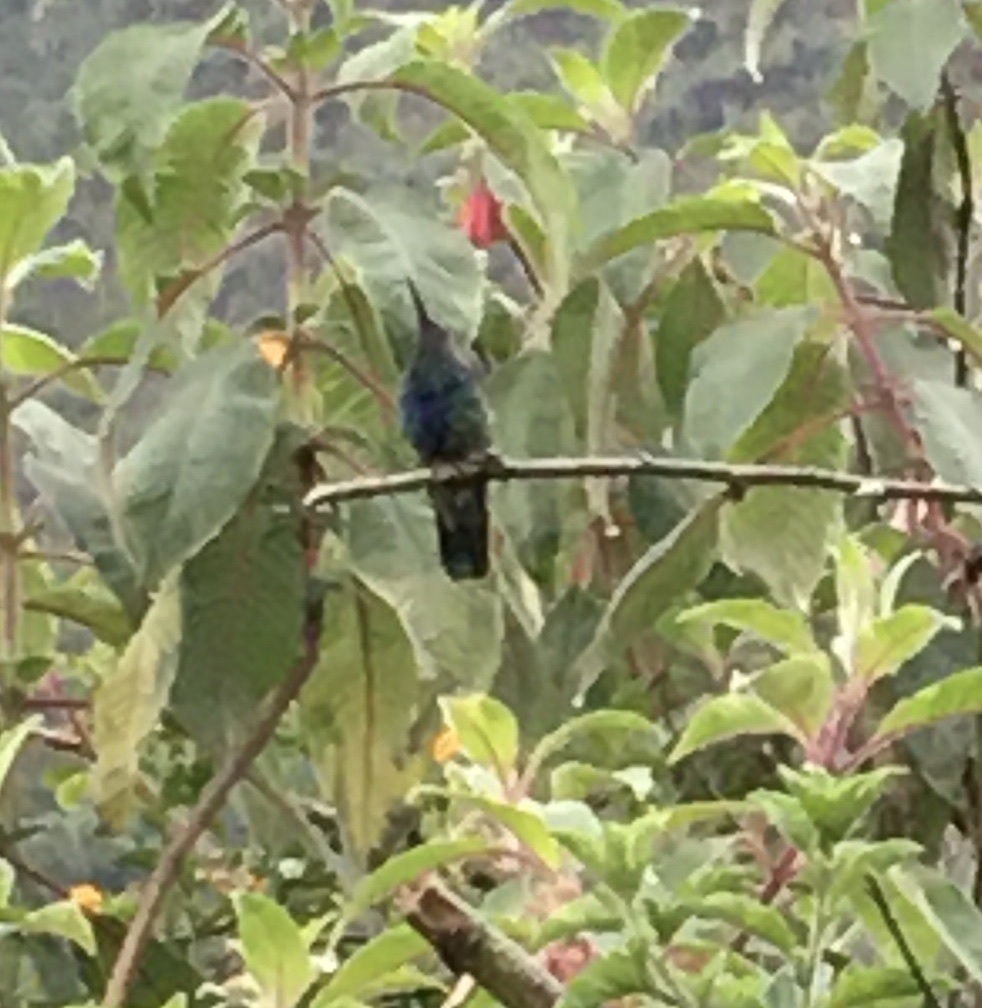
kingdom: Animalia
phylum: Chordata
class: Aves
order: Apodiformes
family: Trochilidae
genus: Colibri
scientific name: Colibri coruscans
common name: Sparkling violetear
